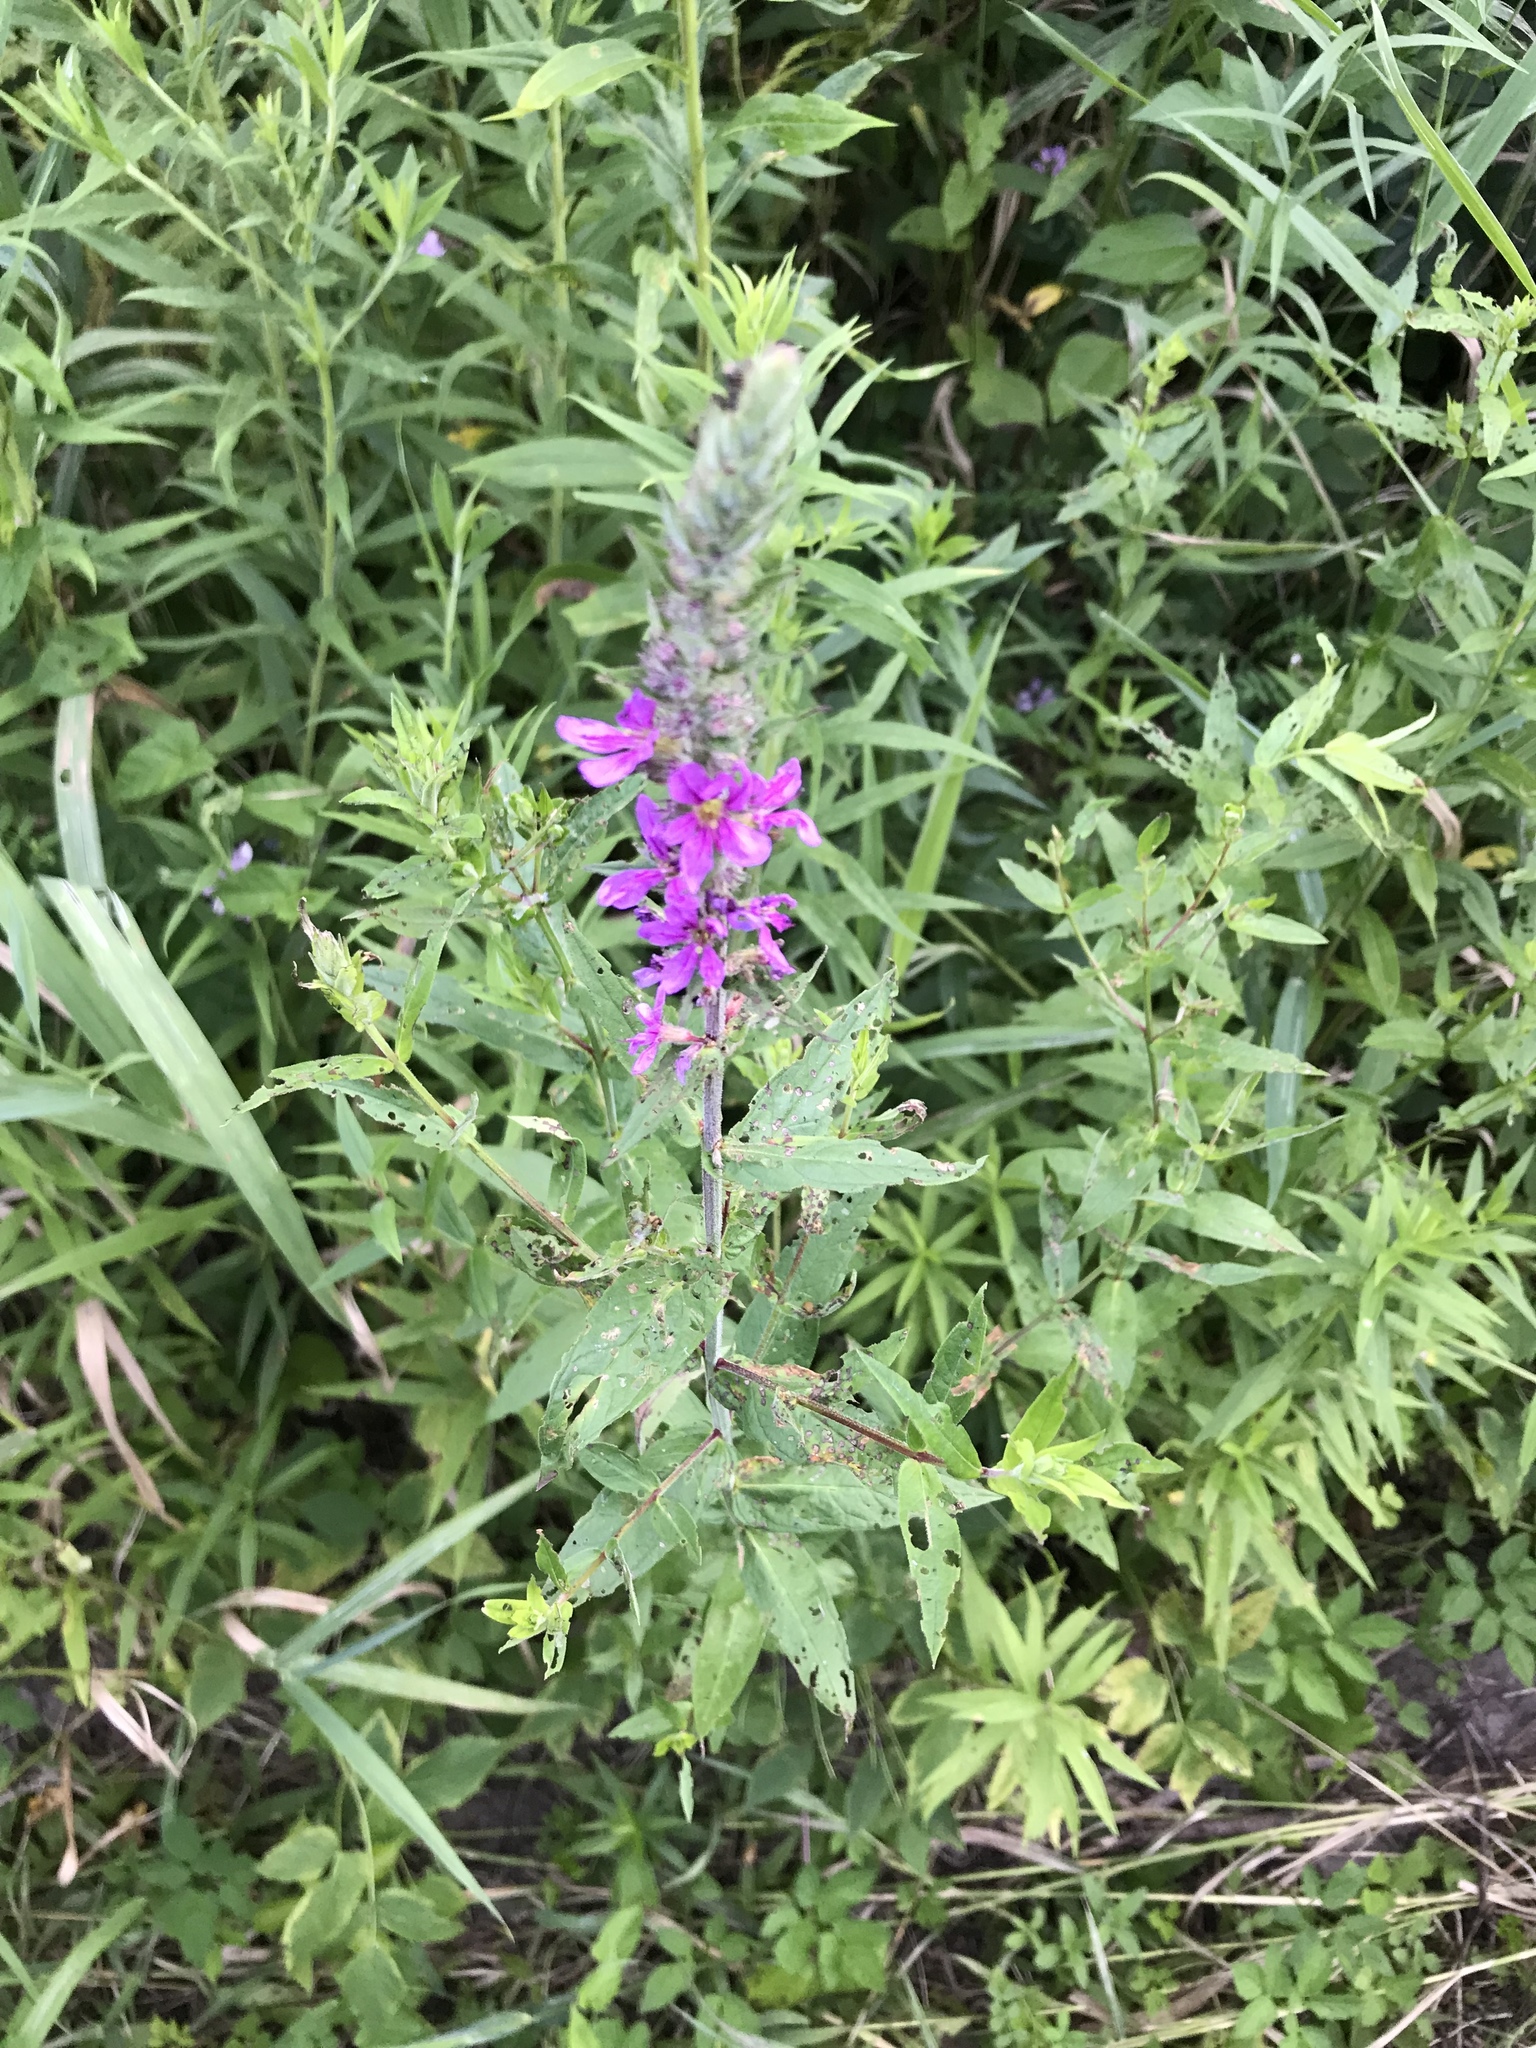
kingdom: Plantae
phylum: Tracheophyta
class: Magnoliopsida
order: Myrtales
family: Lythraceae
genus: Lythrum
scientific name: Lythrum salicaria
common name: Purple loosestrife
